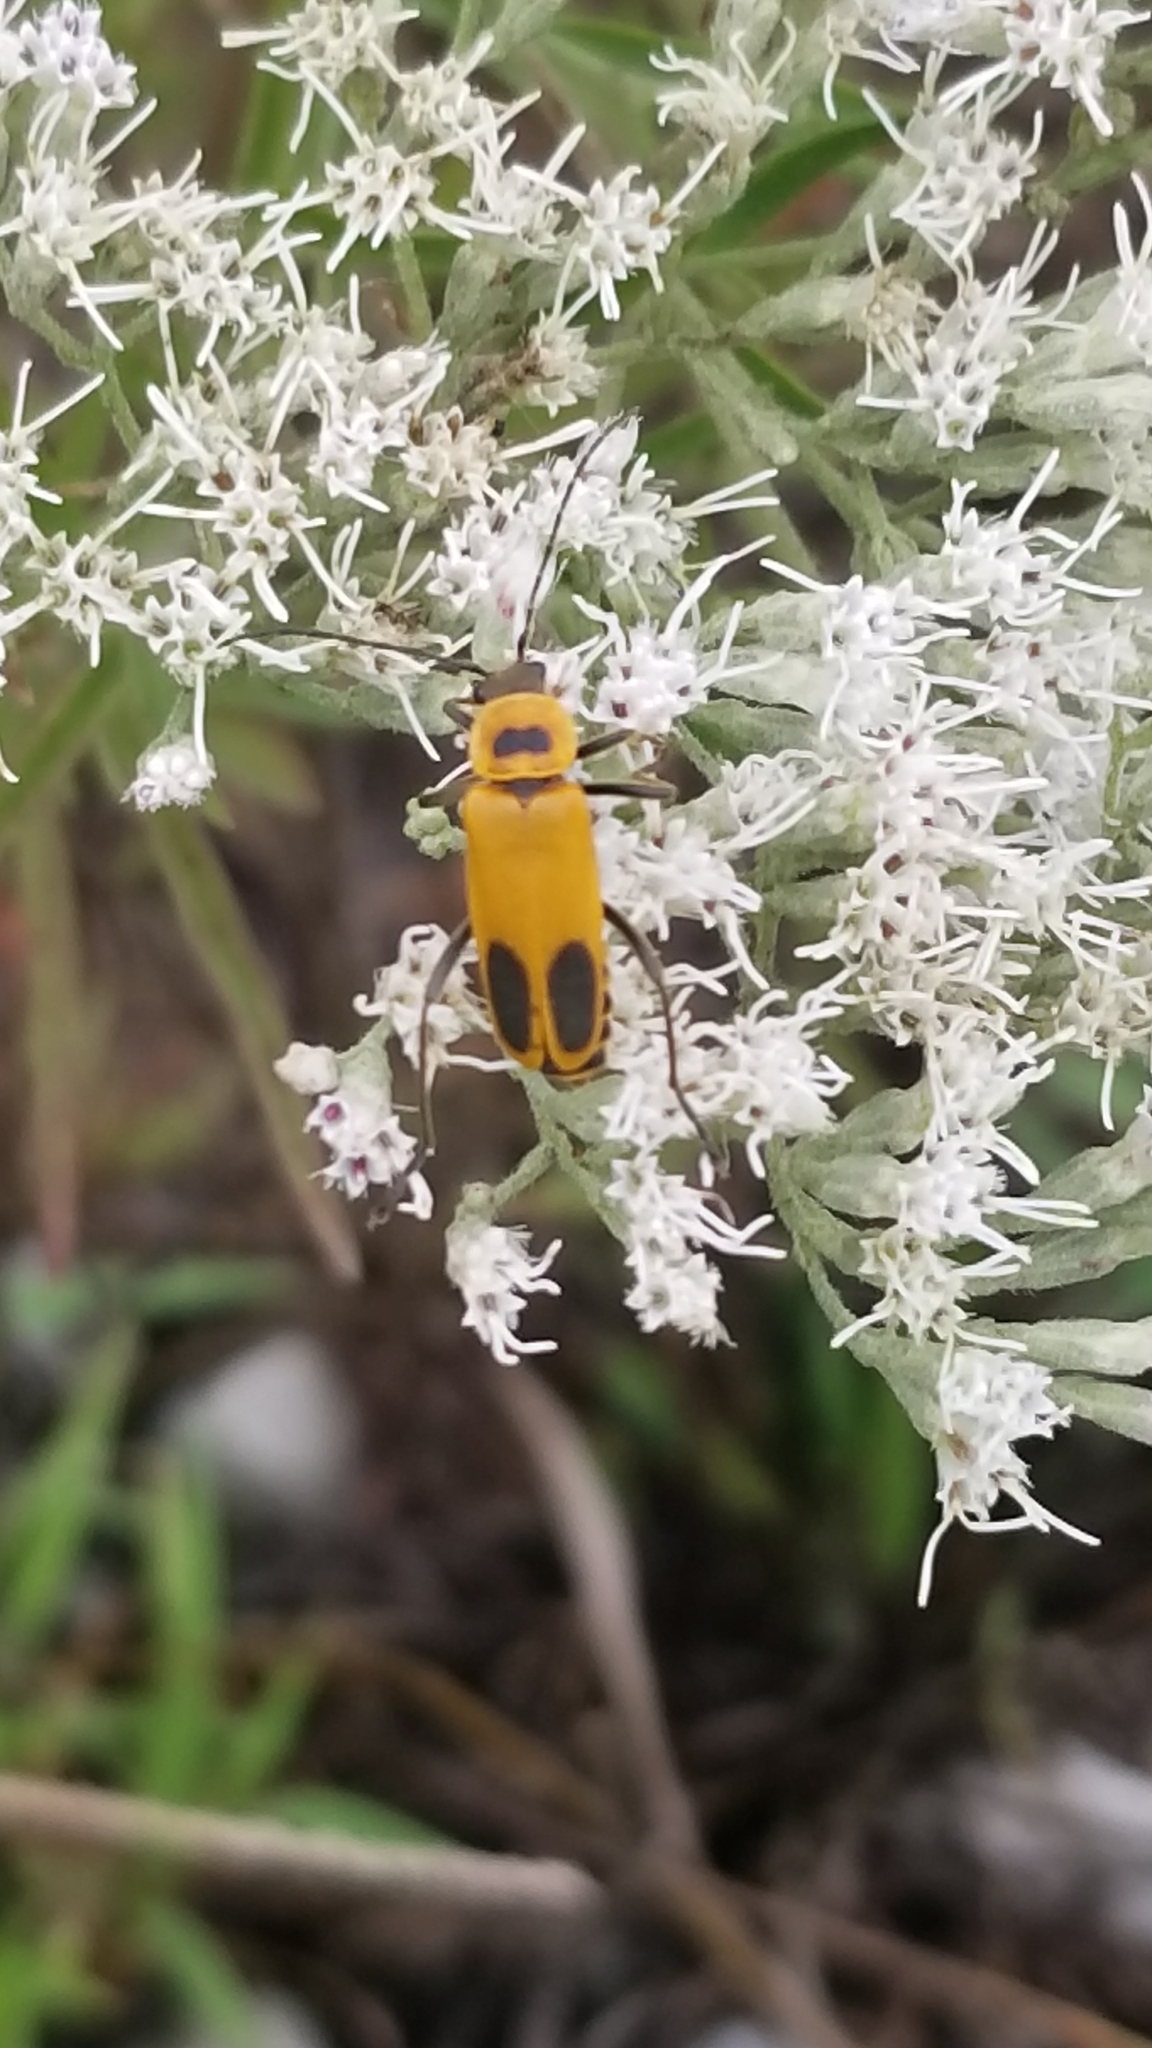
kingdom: Animalia
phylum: Arthropoda
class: Insecta
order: Coleoptera
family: Cantharidae
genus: Chauliognathus
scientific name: Chauliognathus pensylvanicus
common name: Goldenrod soldier beetle
